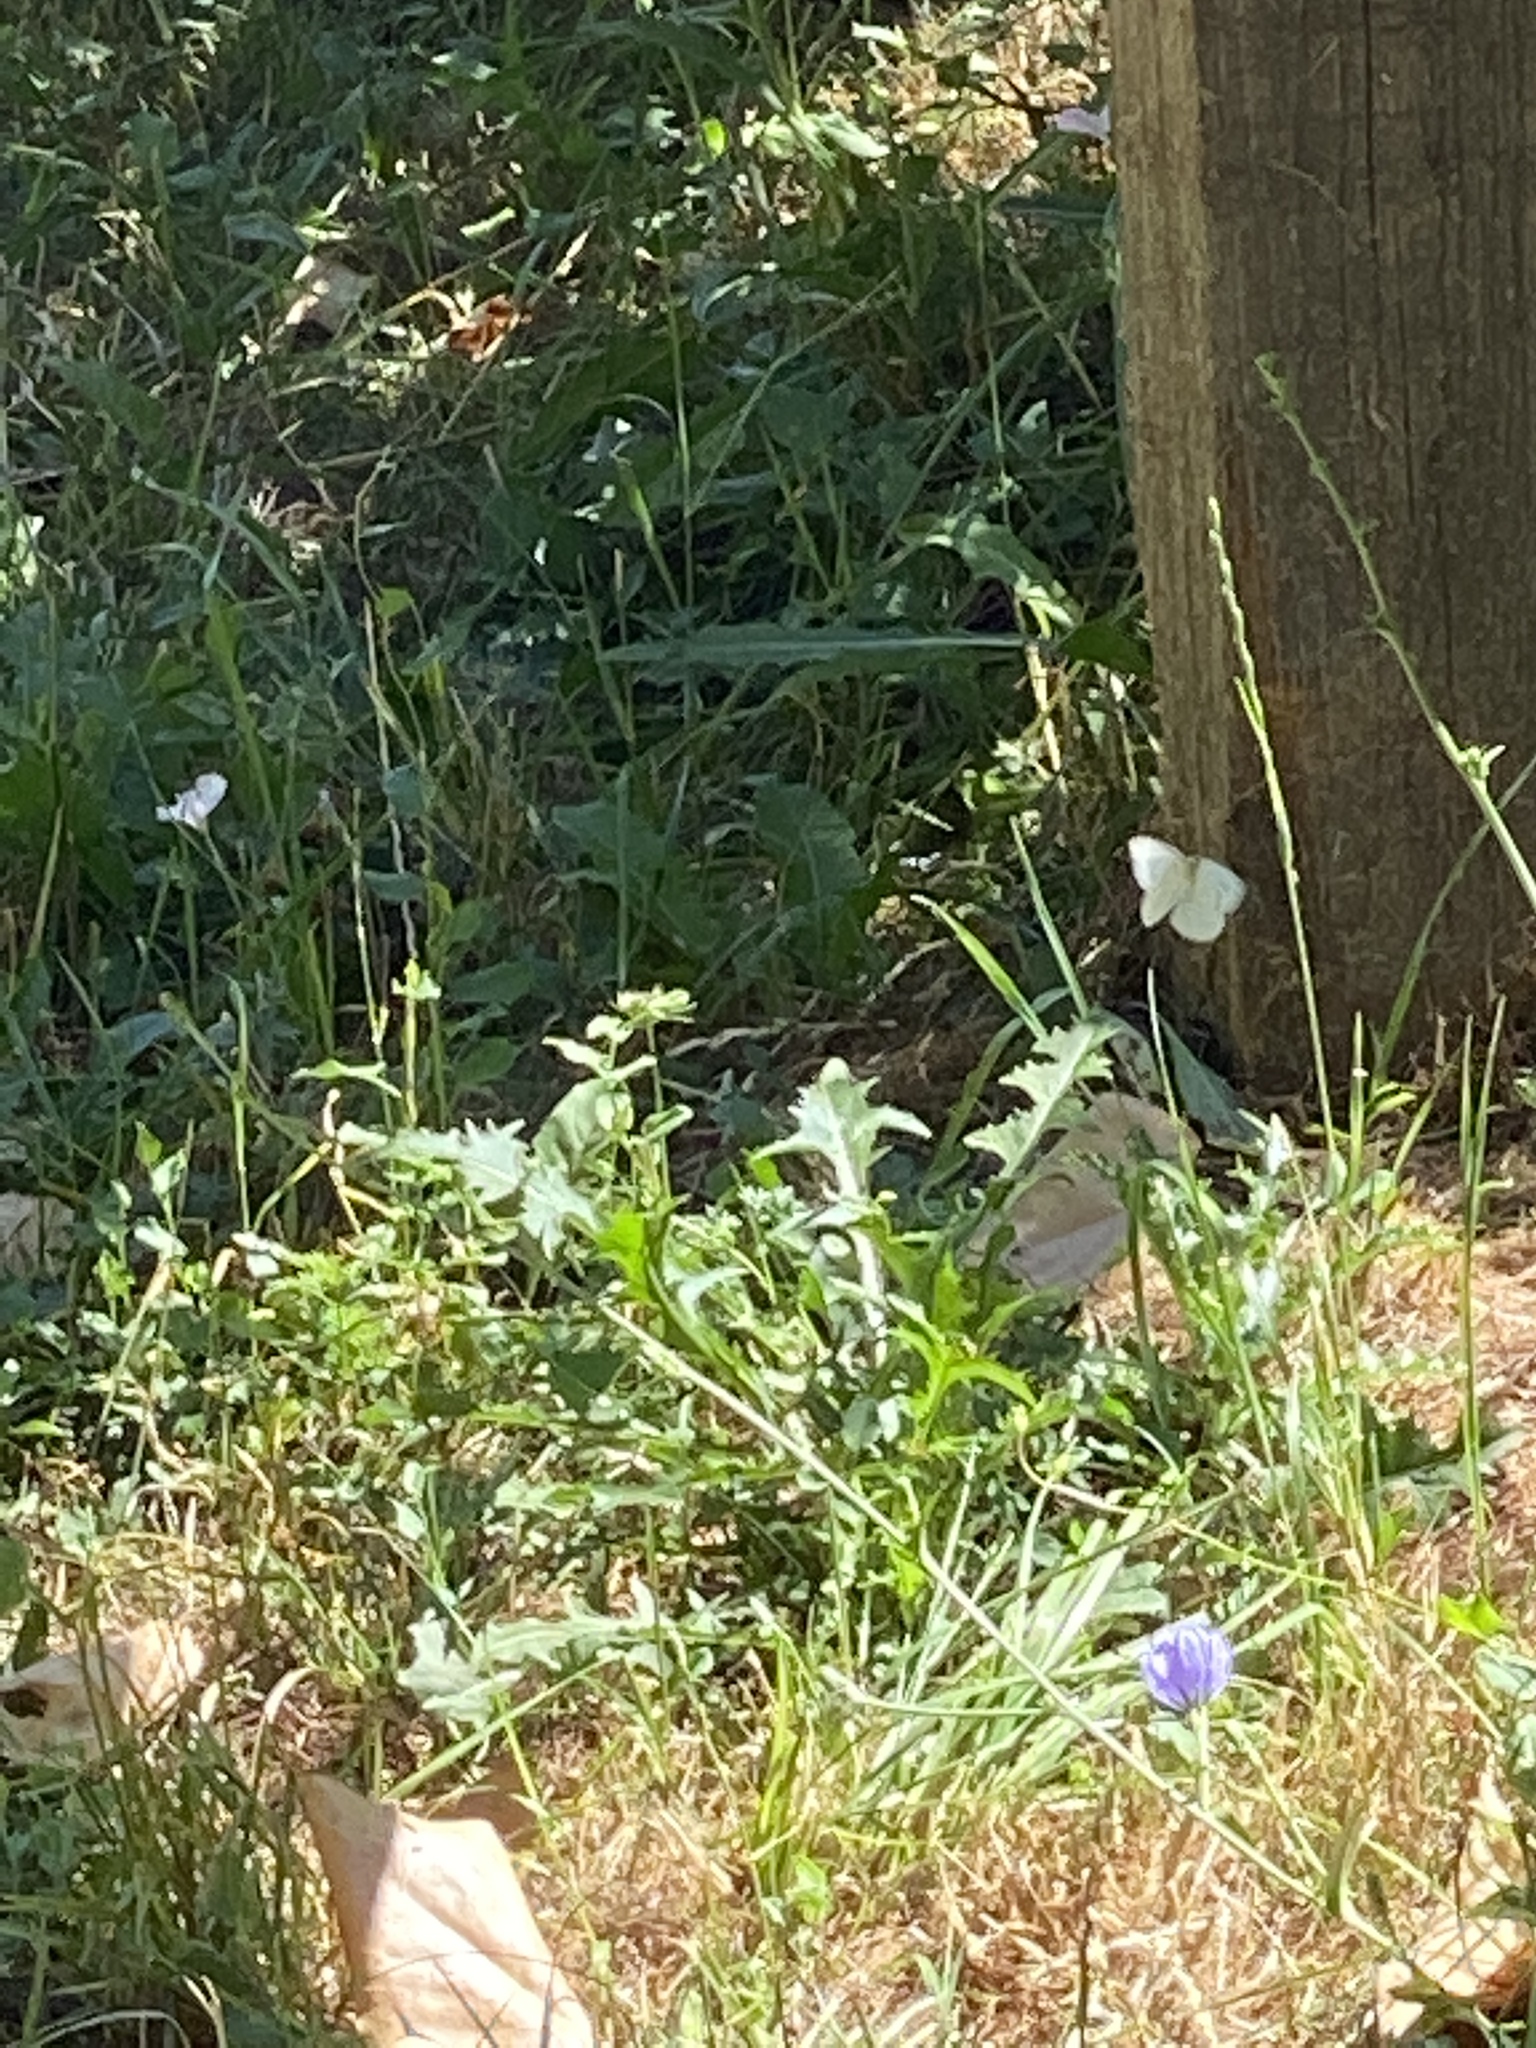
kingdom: Animalia
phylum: Arthropoda
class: Insecta
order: Lepidoptera
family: Pieridae
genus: Pieris
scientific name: Pieris rapae
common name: Small white
